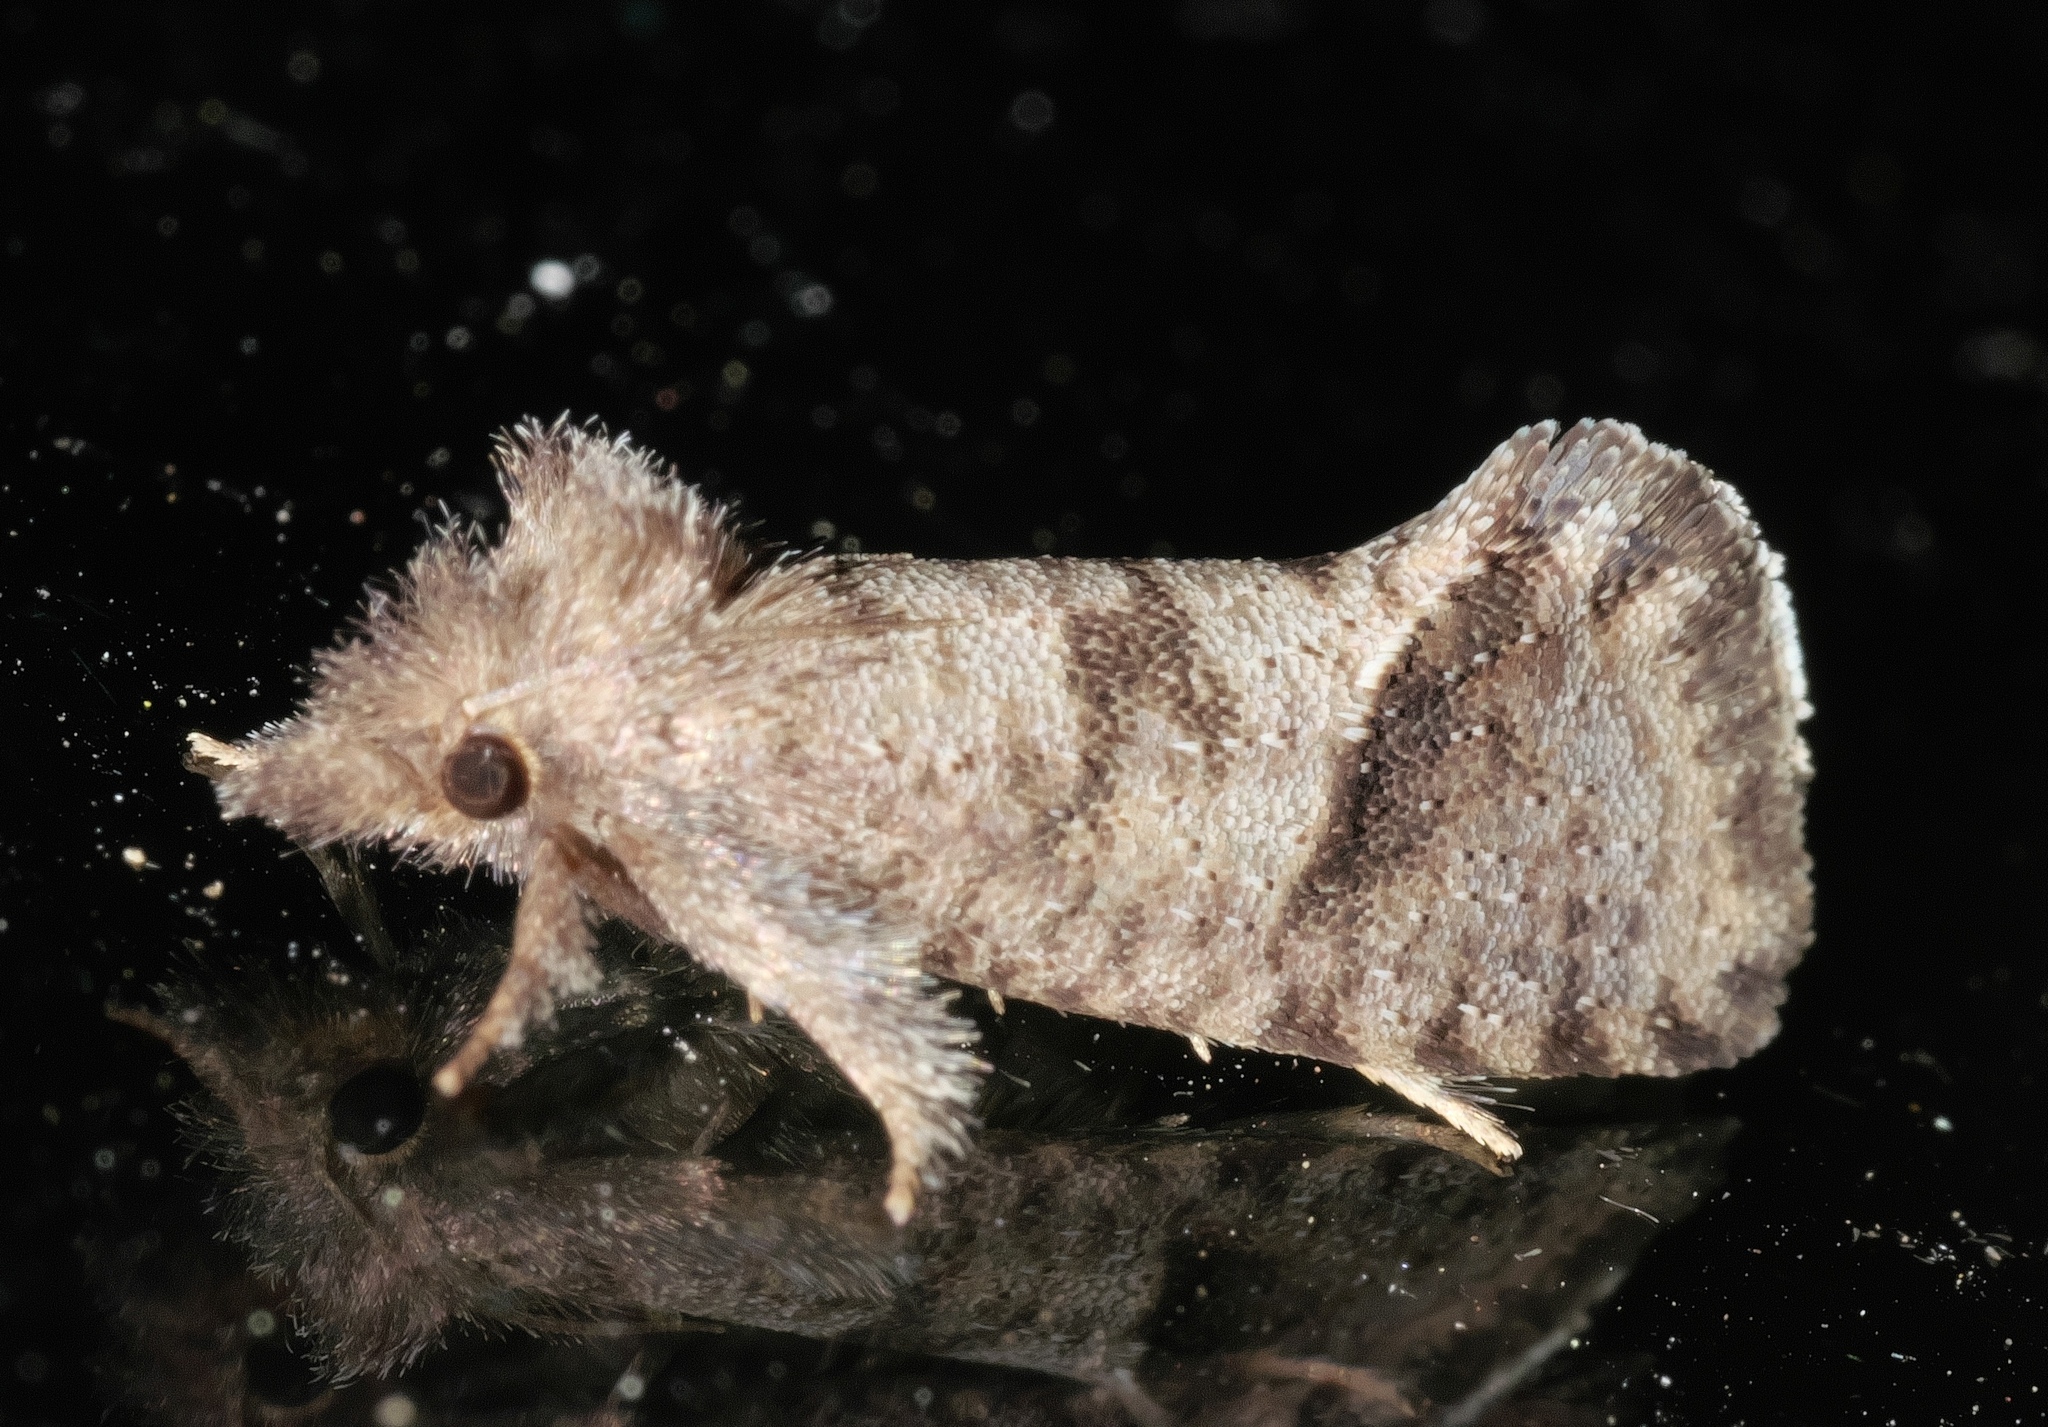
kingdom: Animalia
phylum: Arthropoda
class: Insecta
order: Lepidoptera
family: Tineidae
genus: Acrolophus
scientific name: Acrolophus texanella
